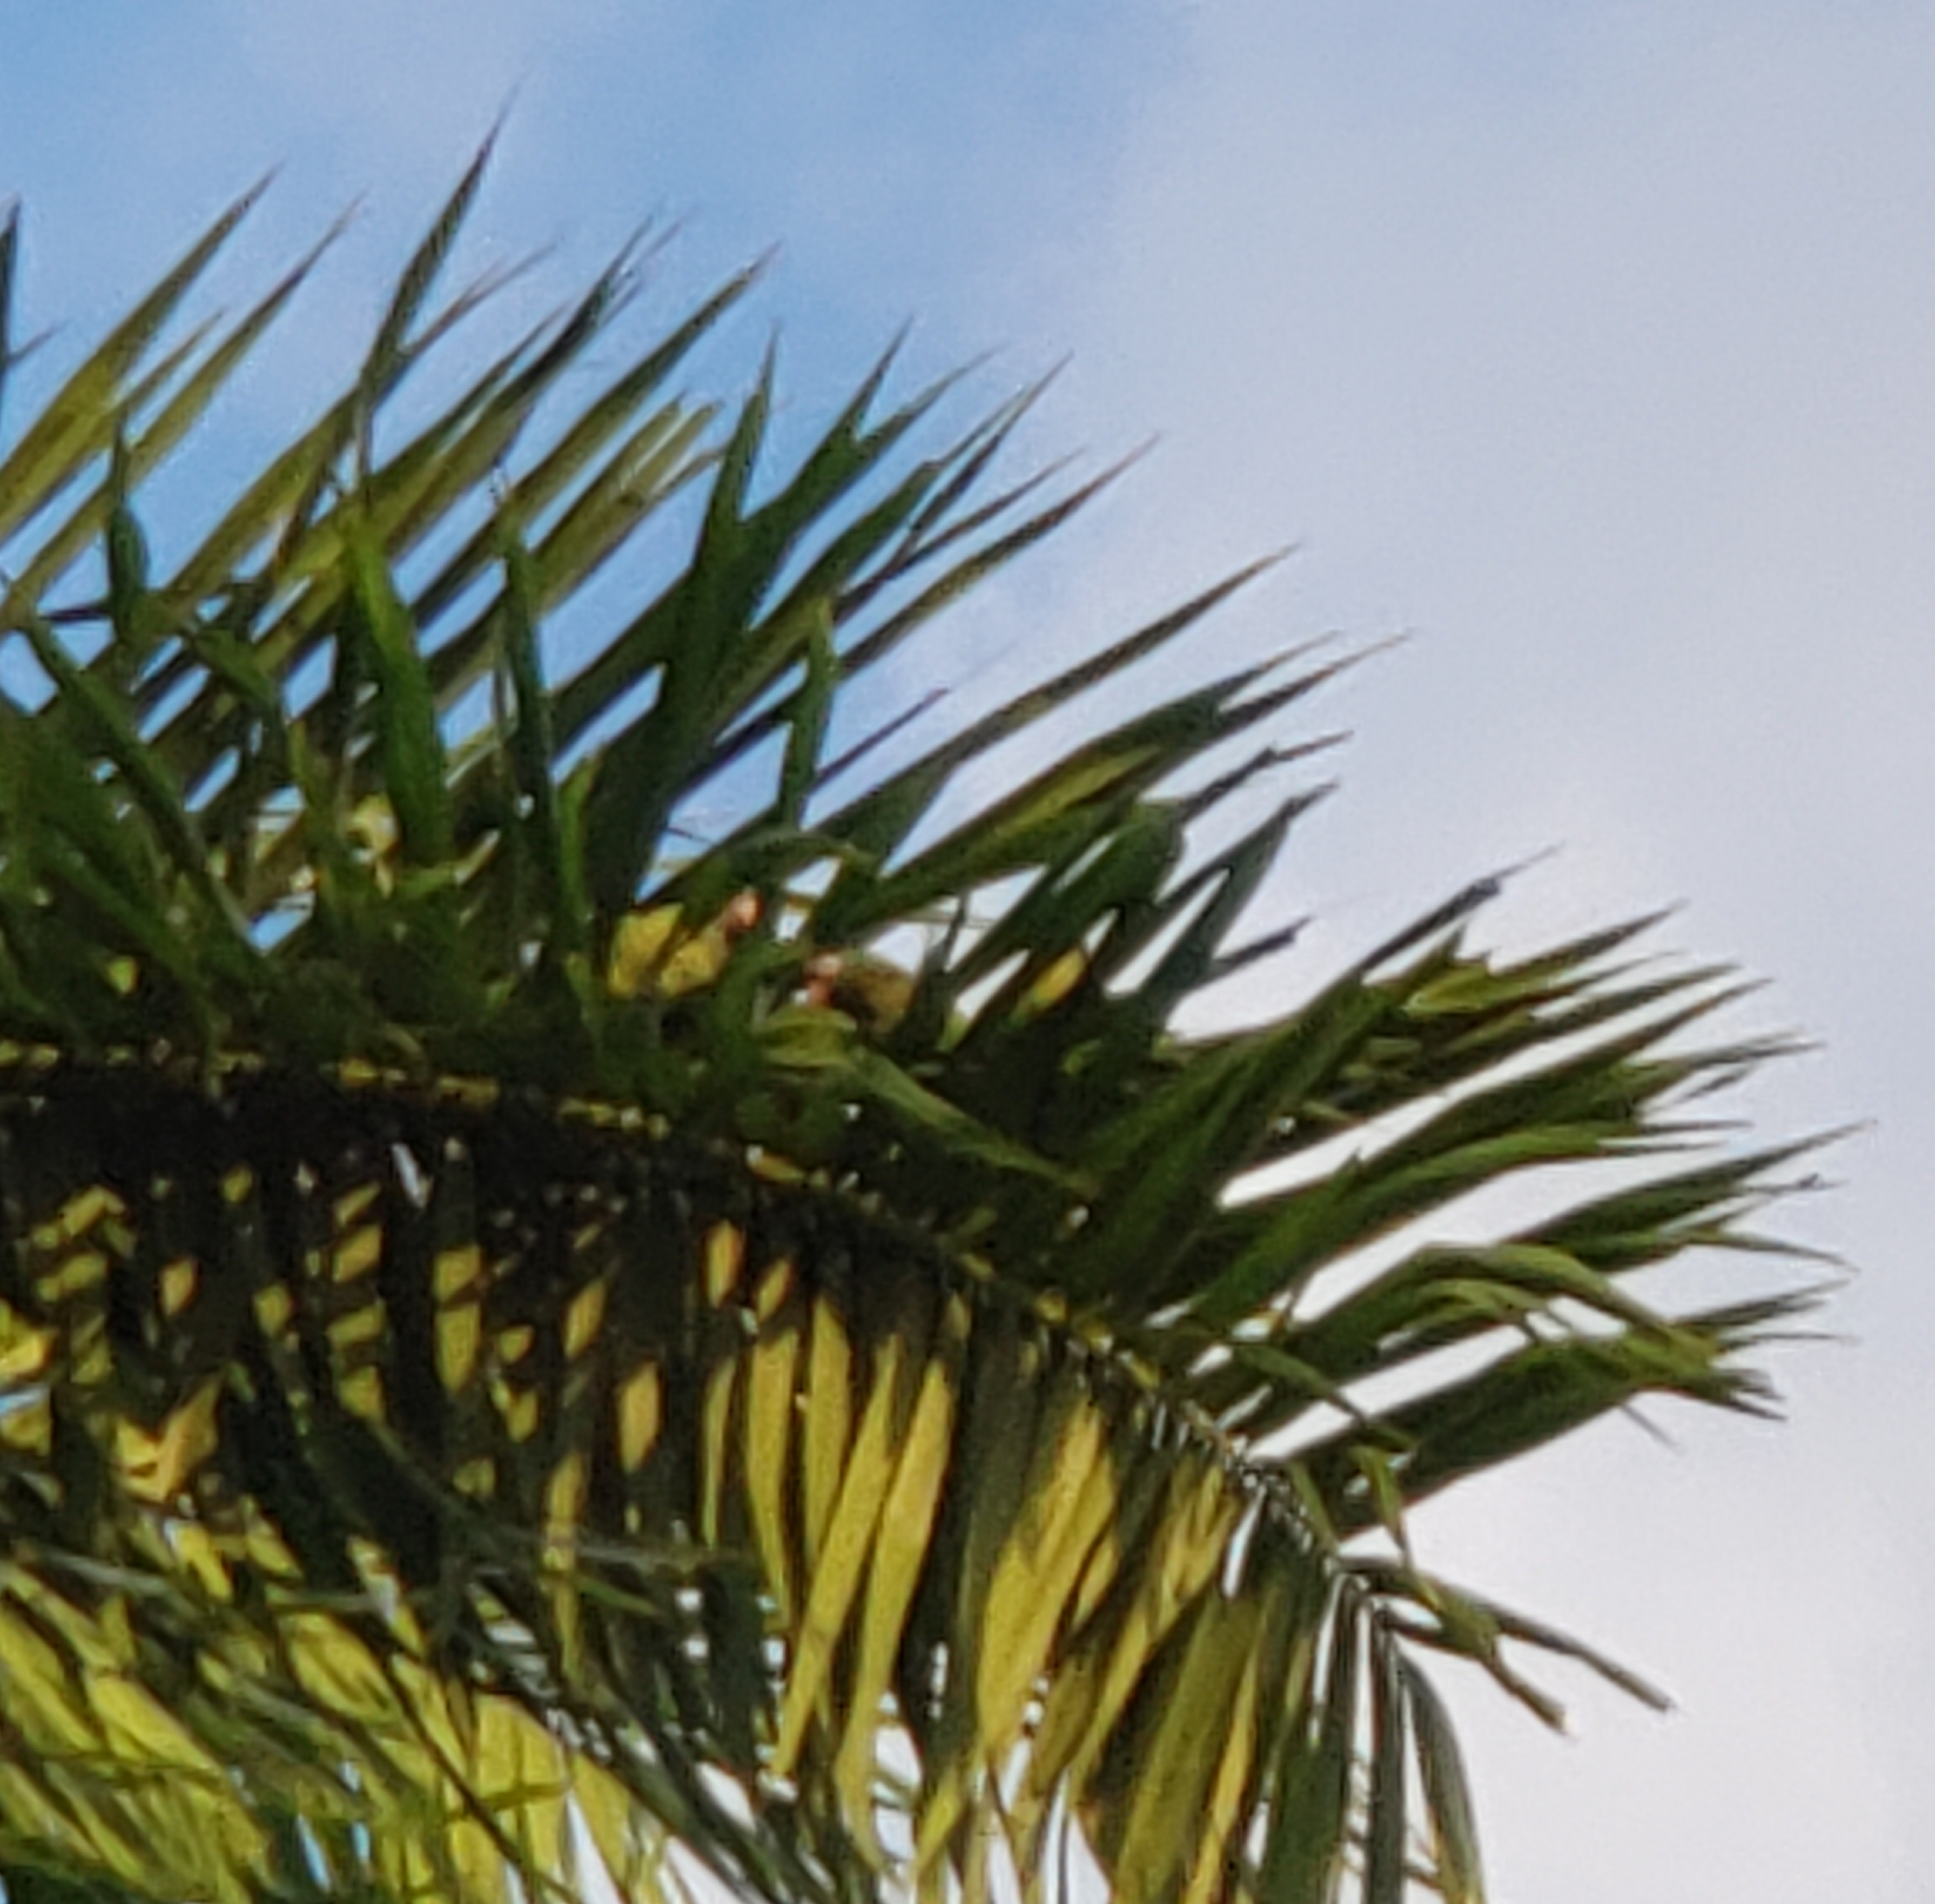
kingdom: Animalia
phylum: Chordata
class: Aves
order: Psittaciformes
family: Psittacidae
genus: Aratinga
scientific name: Aratinga acuticaudata
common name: Blue-crowned parakeet
